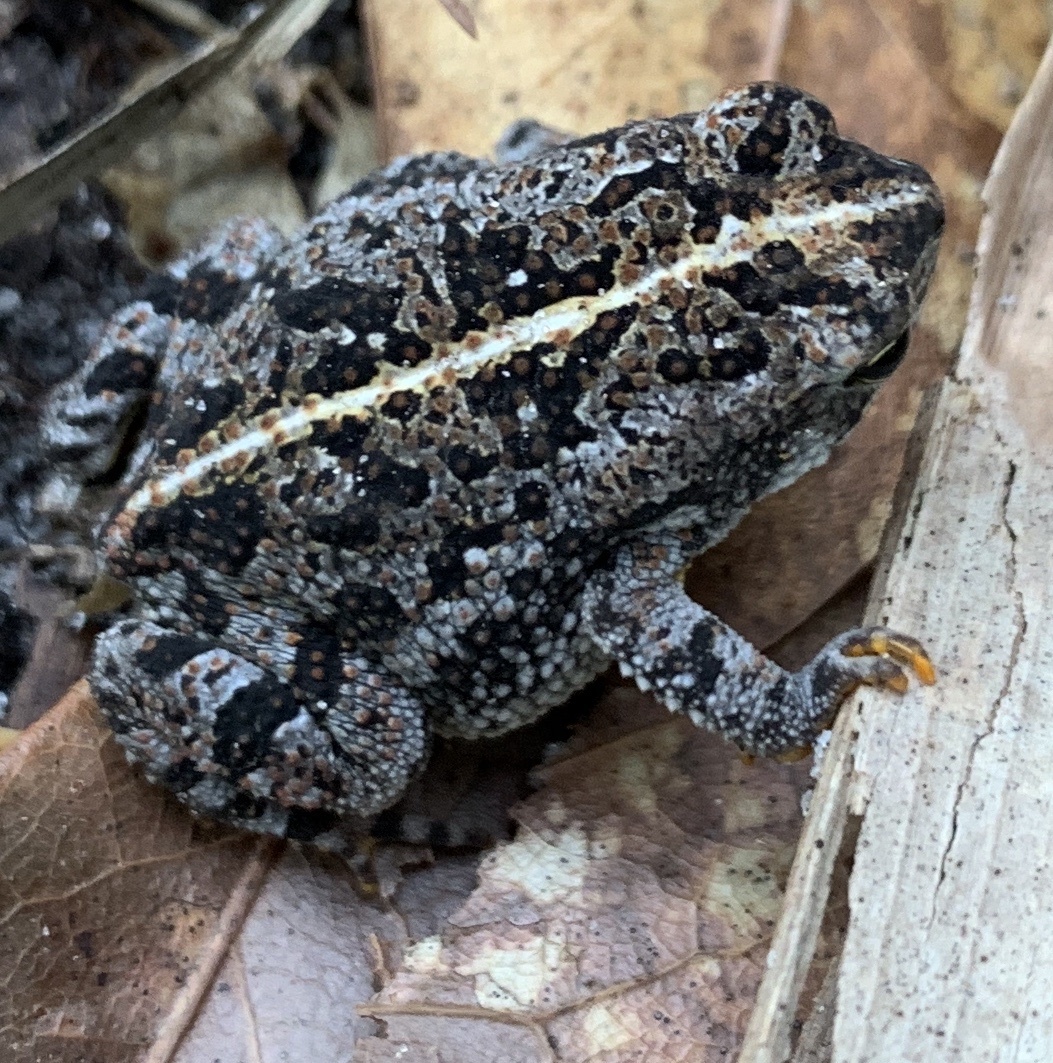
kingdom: Animalia
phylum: Chordata
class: Amphibia
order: Anura
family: Bufonidae
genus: Anaxyrus
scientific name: Anaxyrus quercicus
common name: Oak toad
